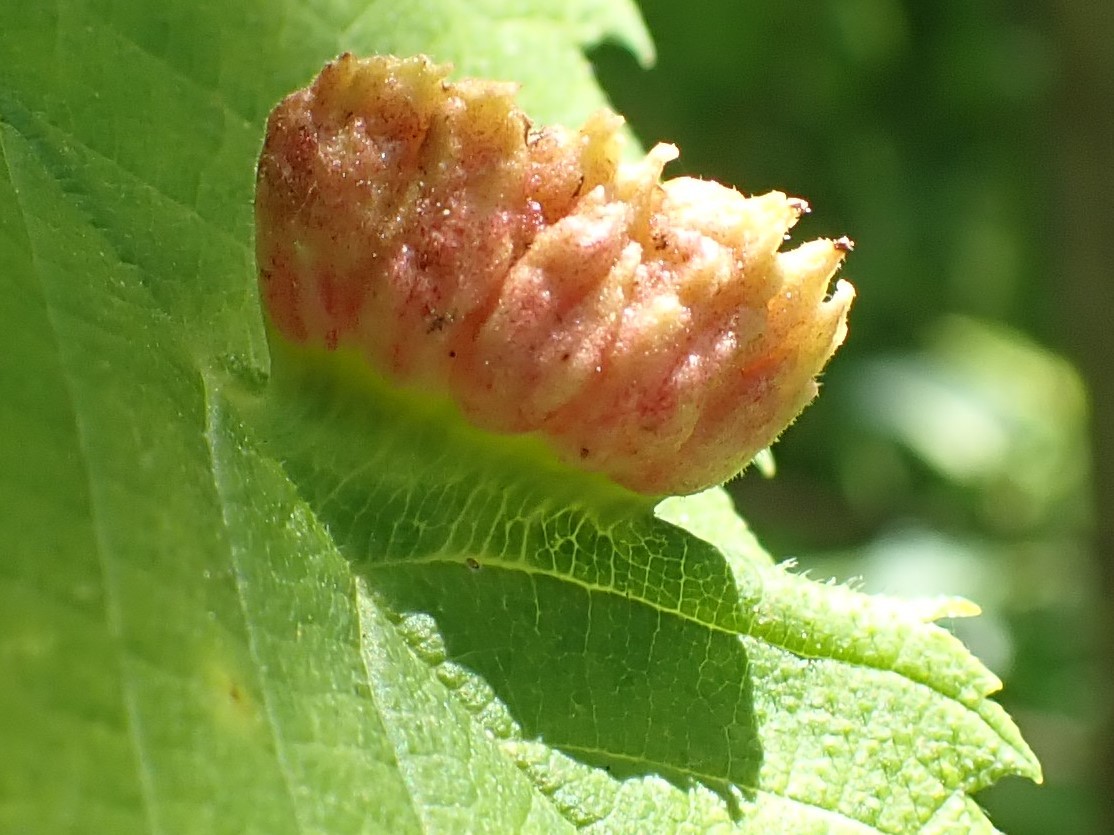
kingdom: Animalia
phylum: Arthropoda
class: Insecta
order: Hemiptera
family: Aphididae
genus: Colopha
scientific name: Colopha ulmicola
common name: Elm cockscombgall aphid
